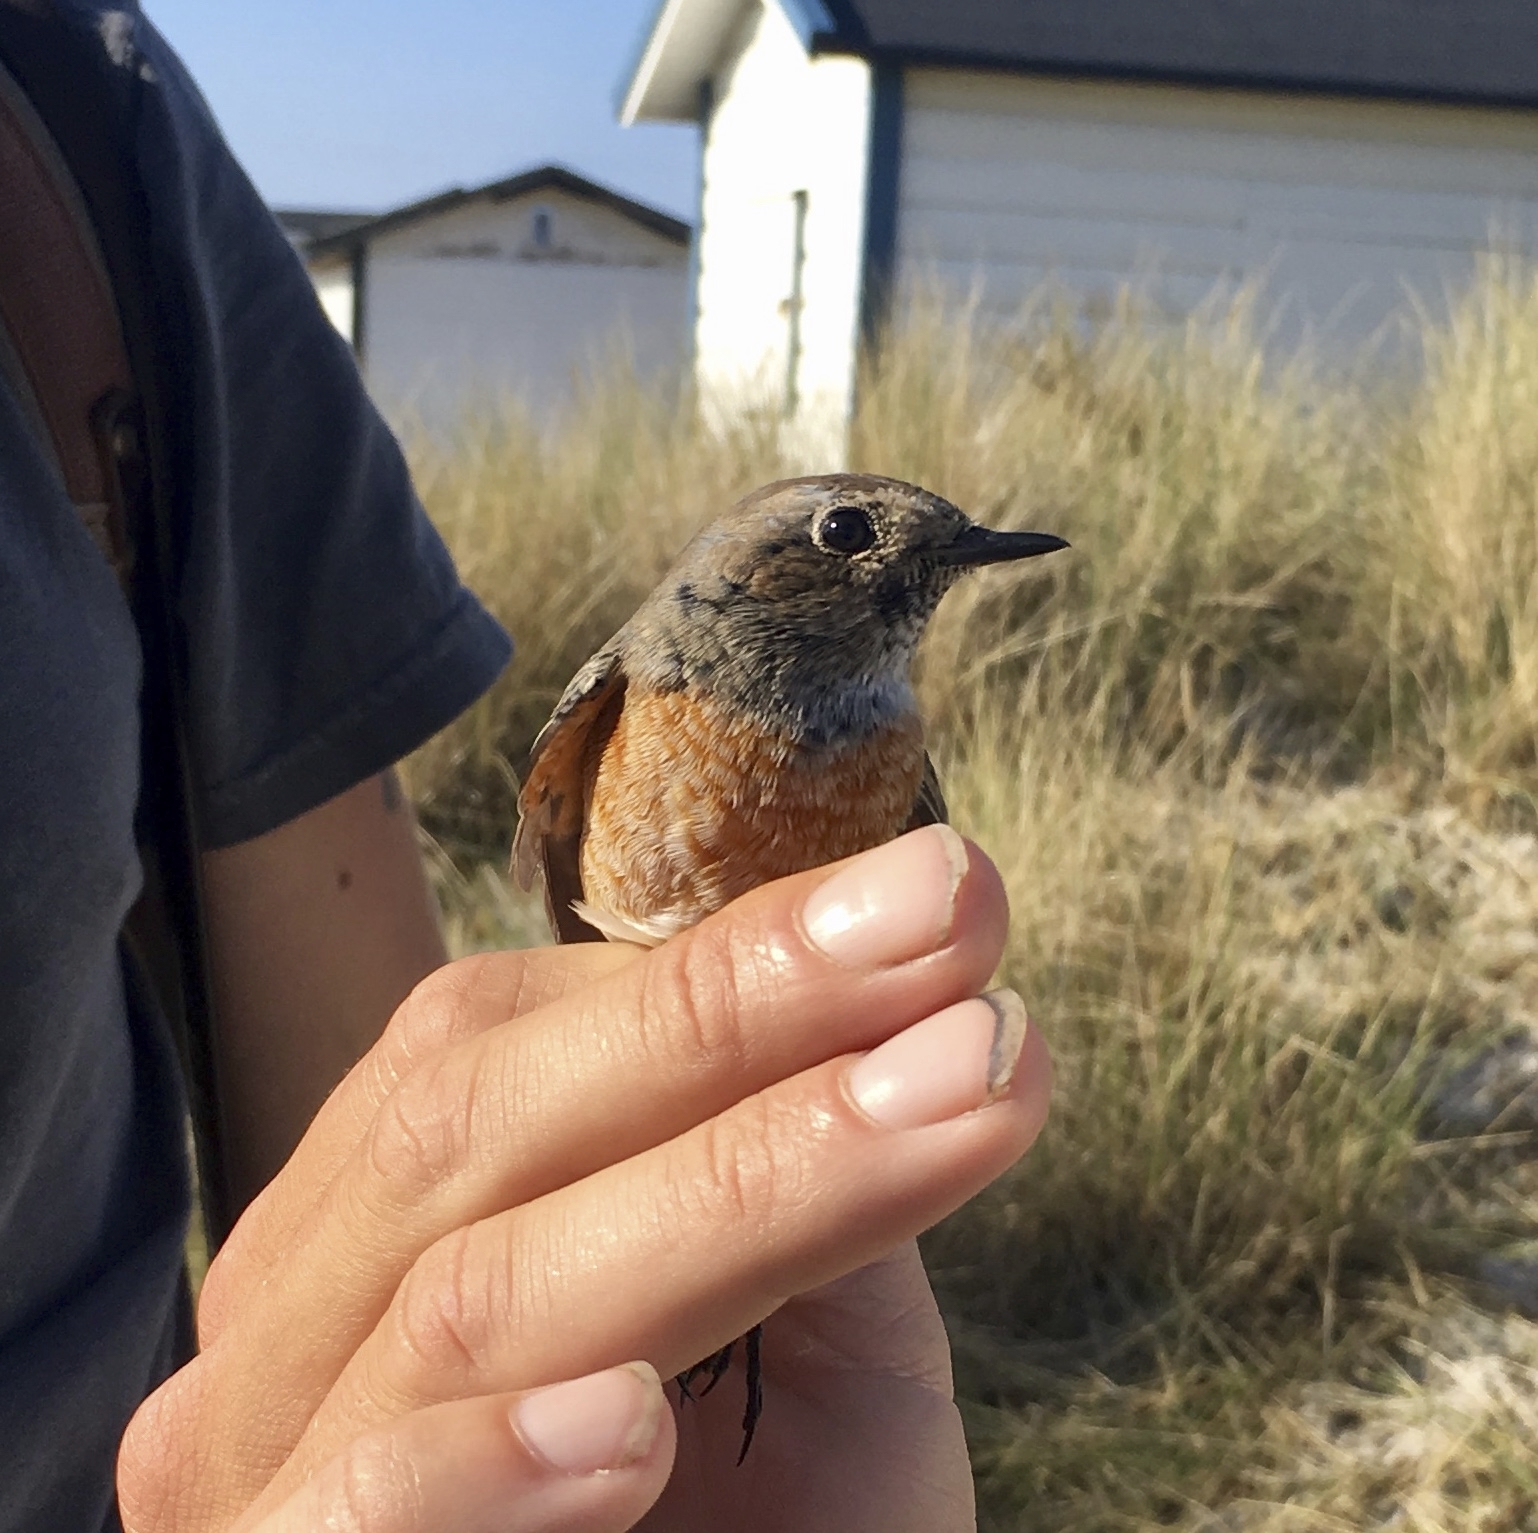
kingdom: Animalia
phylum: Chordata
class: Aves
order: Passeriformes
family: Muscicapidae
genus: Phoenicurus
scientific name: Phoenicurus phoenicurus
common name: Common redstart
